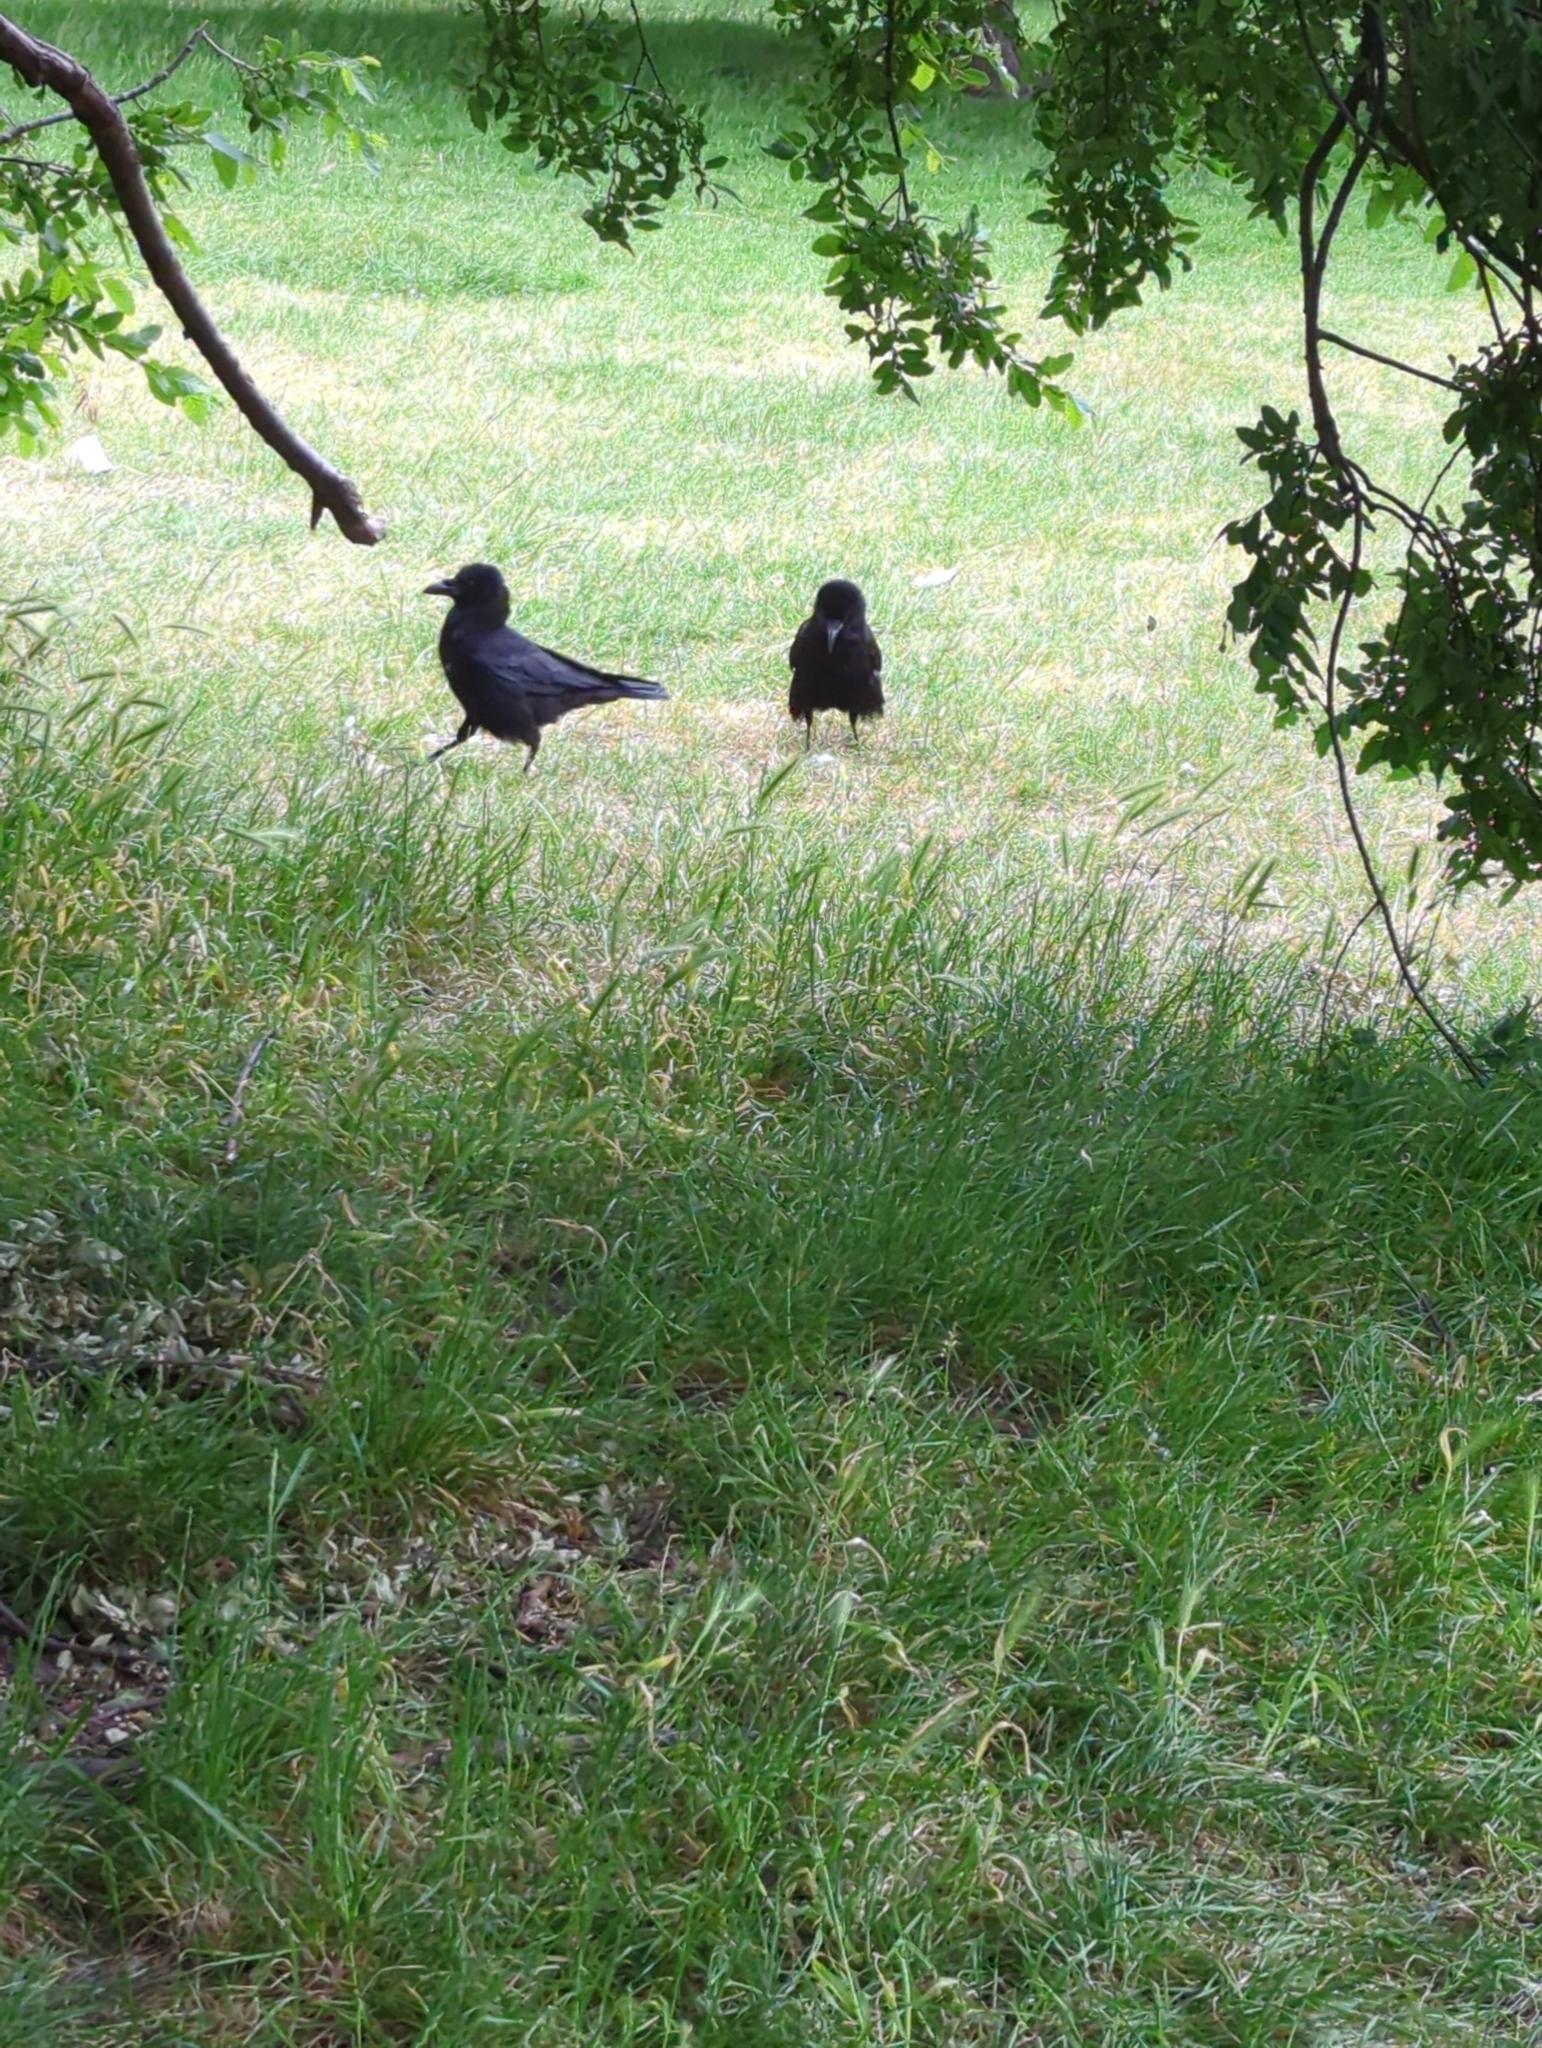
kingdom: Animalia
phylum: Chordata
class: Aves
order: Passeriformes
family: Corvidae
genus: Corvus
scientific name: Corvus frugilegus
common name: Rook
